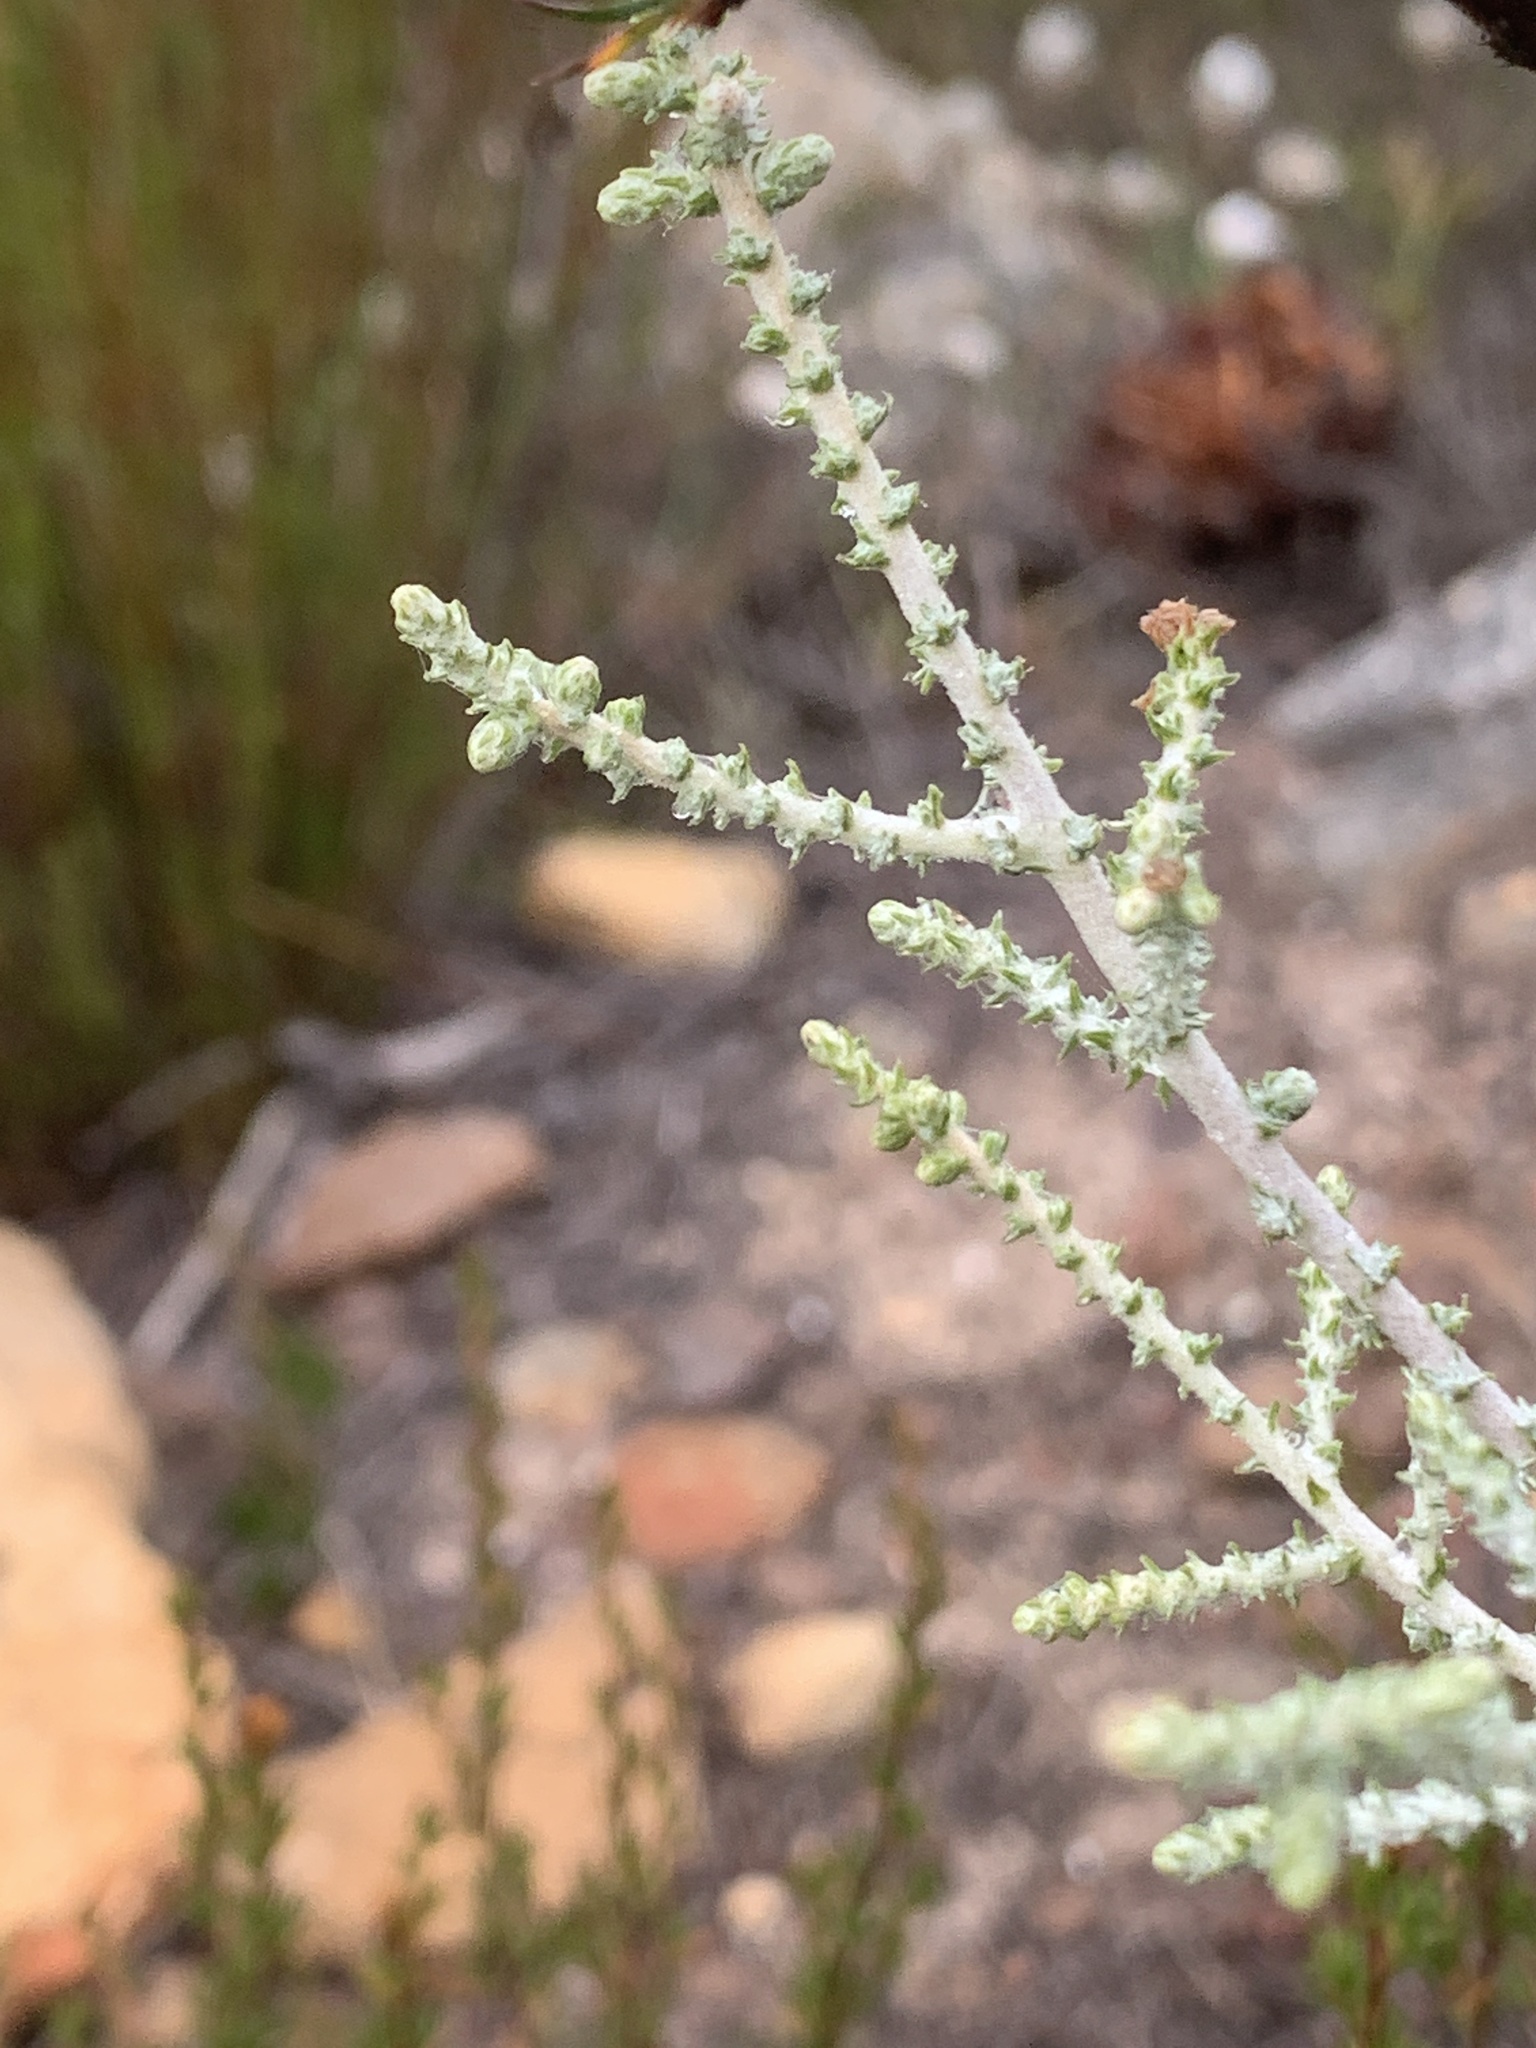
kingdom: Plantae
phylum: Tracheophyta
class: Magnoliopsida
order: Asterales
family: Asteraceae
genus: Seriphium
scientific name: Seriphium plumosum
